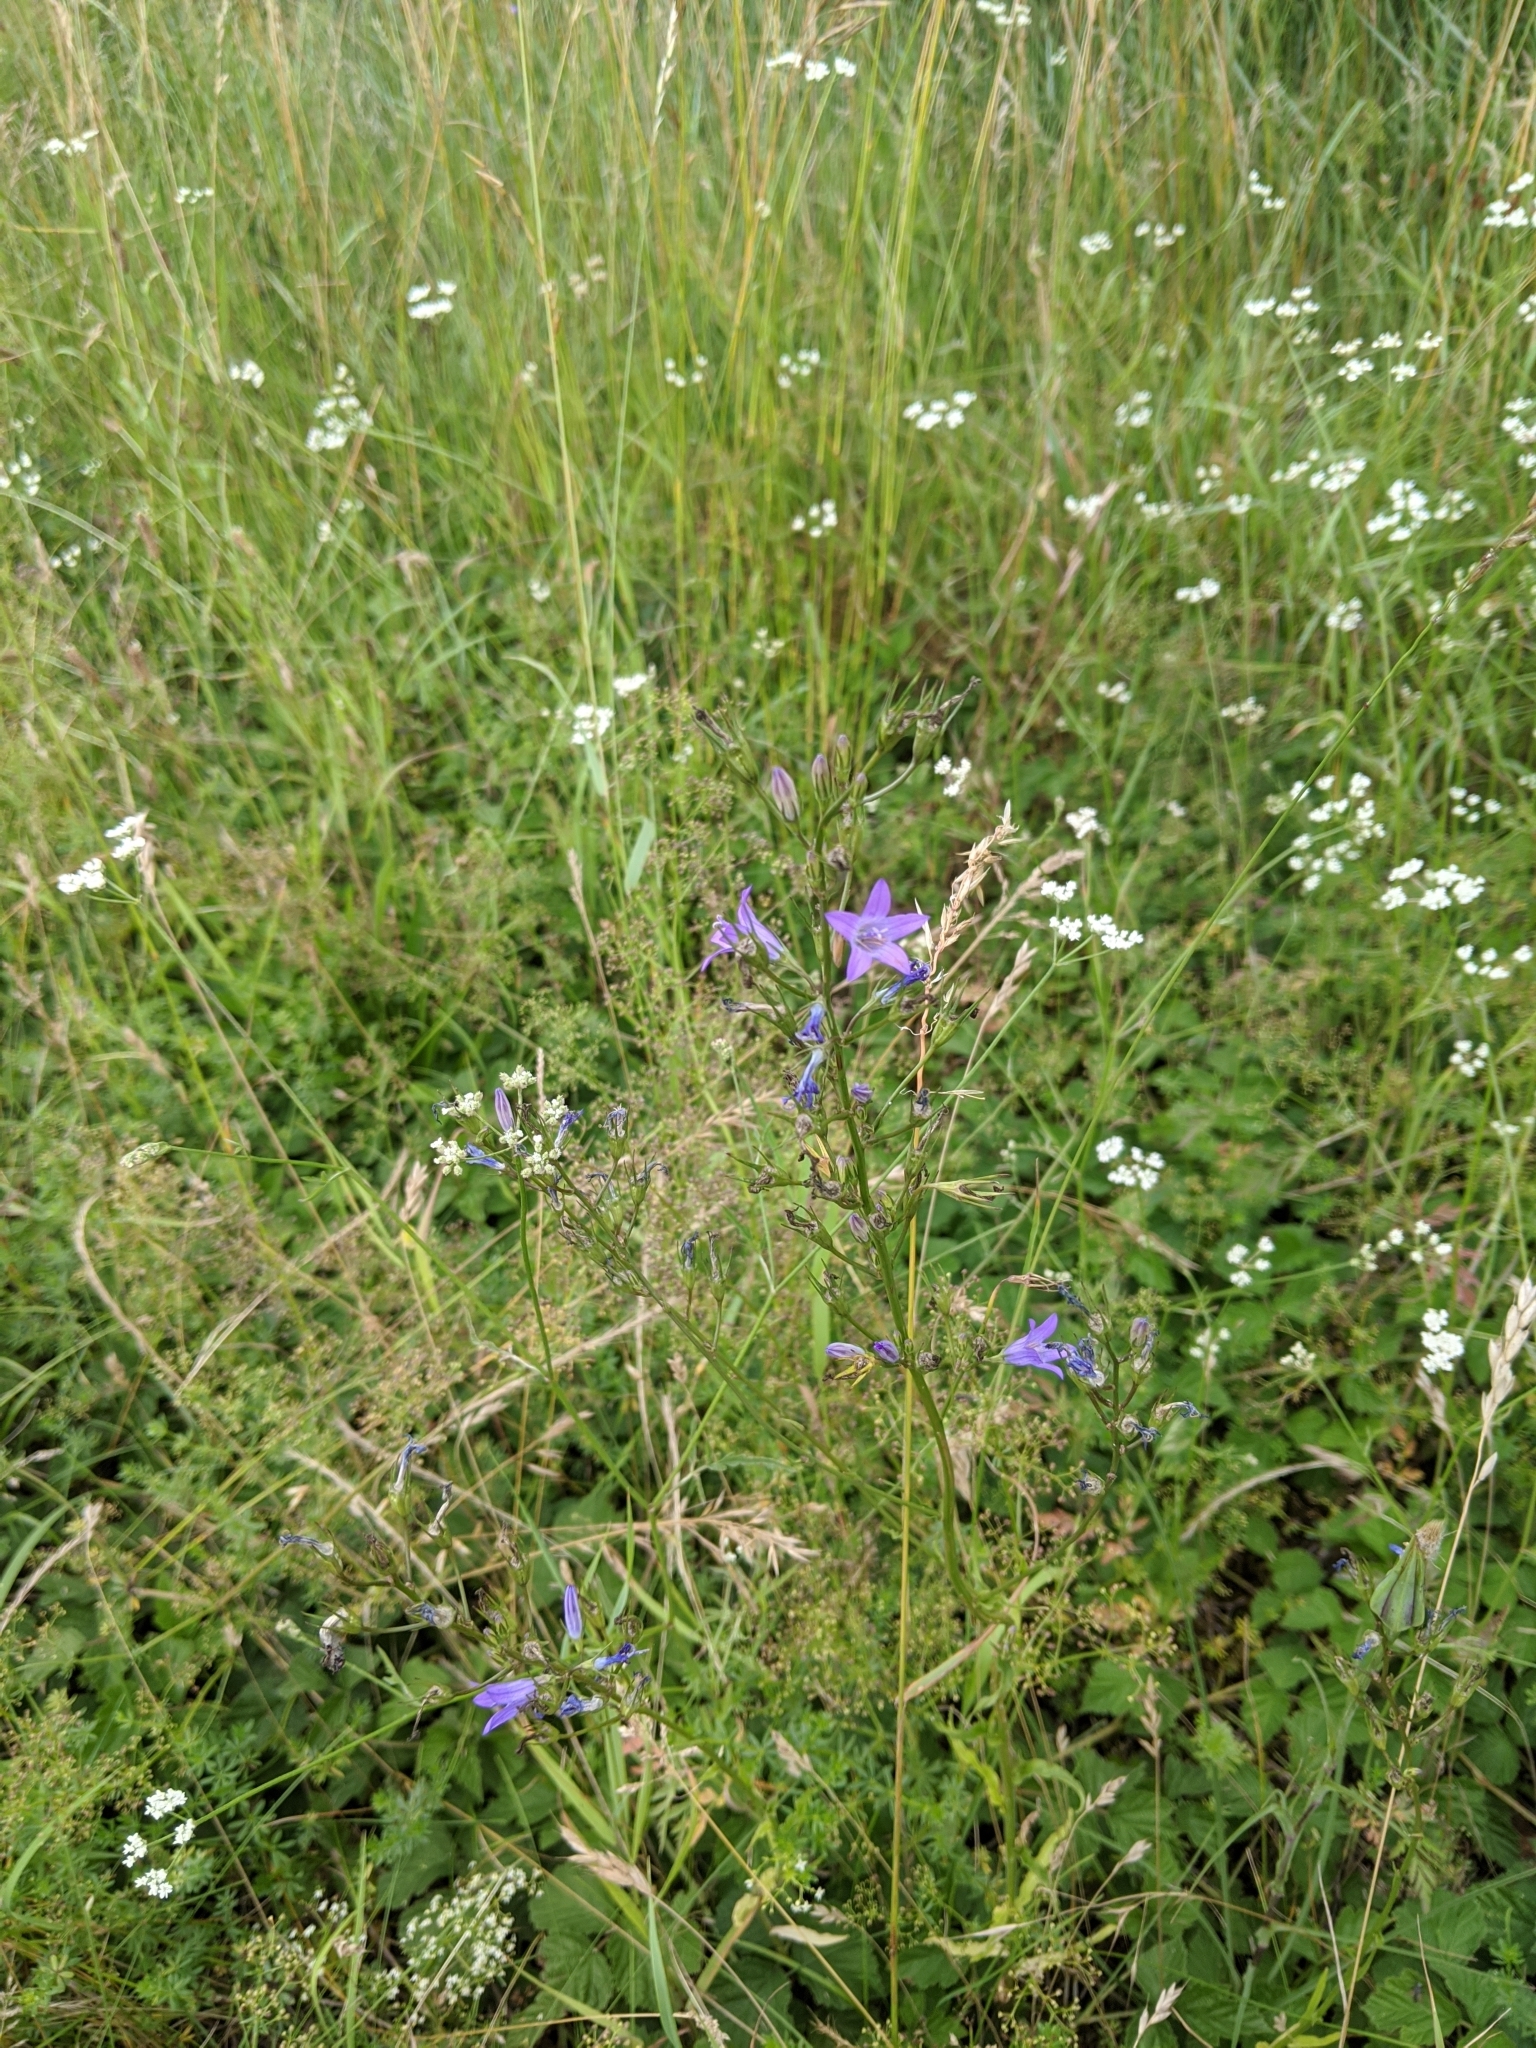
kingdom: Plantae
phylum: Tracheophyta
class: Magnoliopsida
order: Asterales
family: Campanulaceae
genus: Campanula
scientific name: Campanula rapunculus
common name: Rampion bellflower
